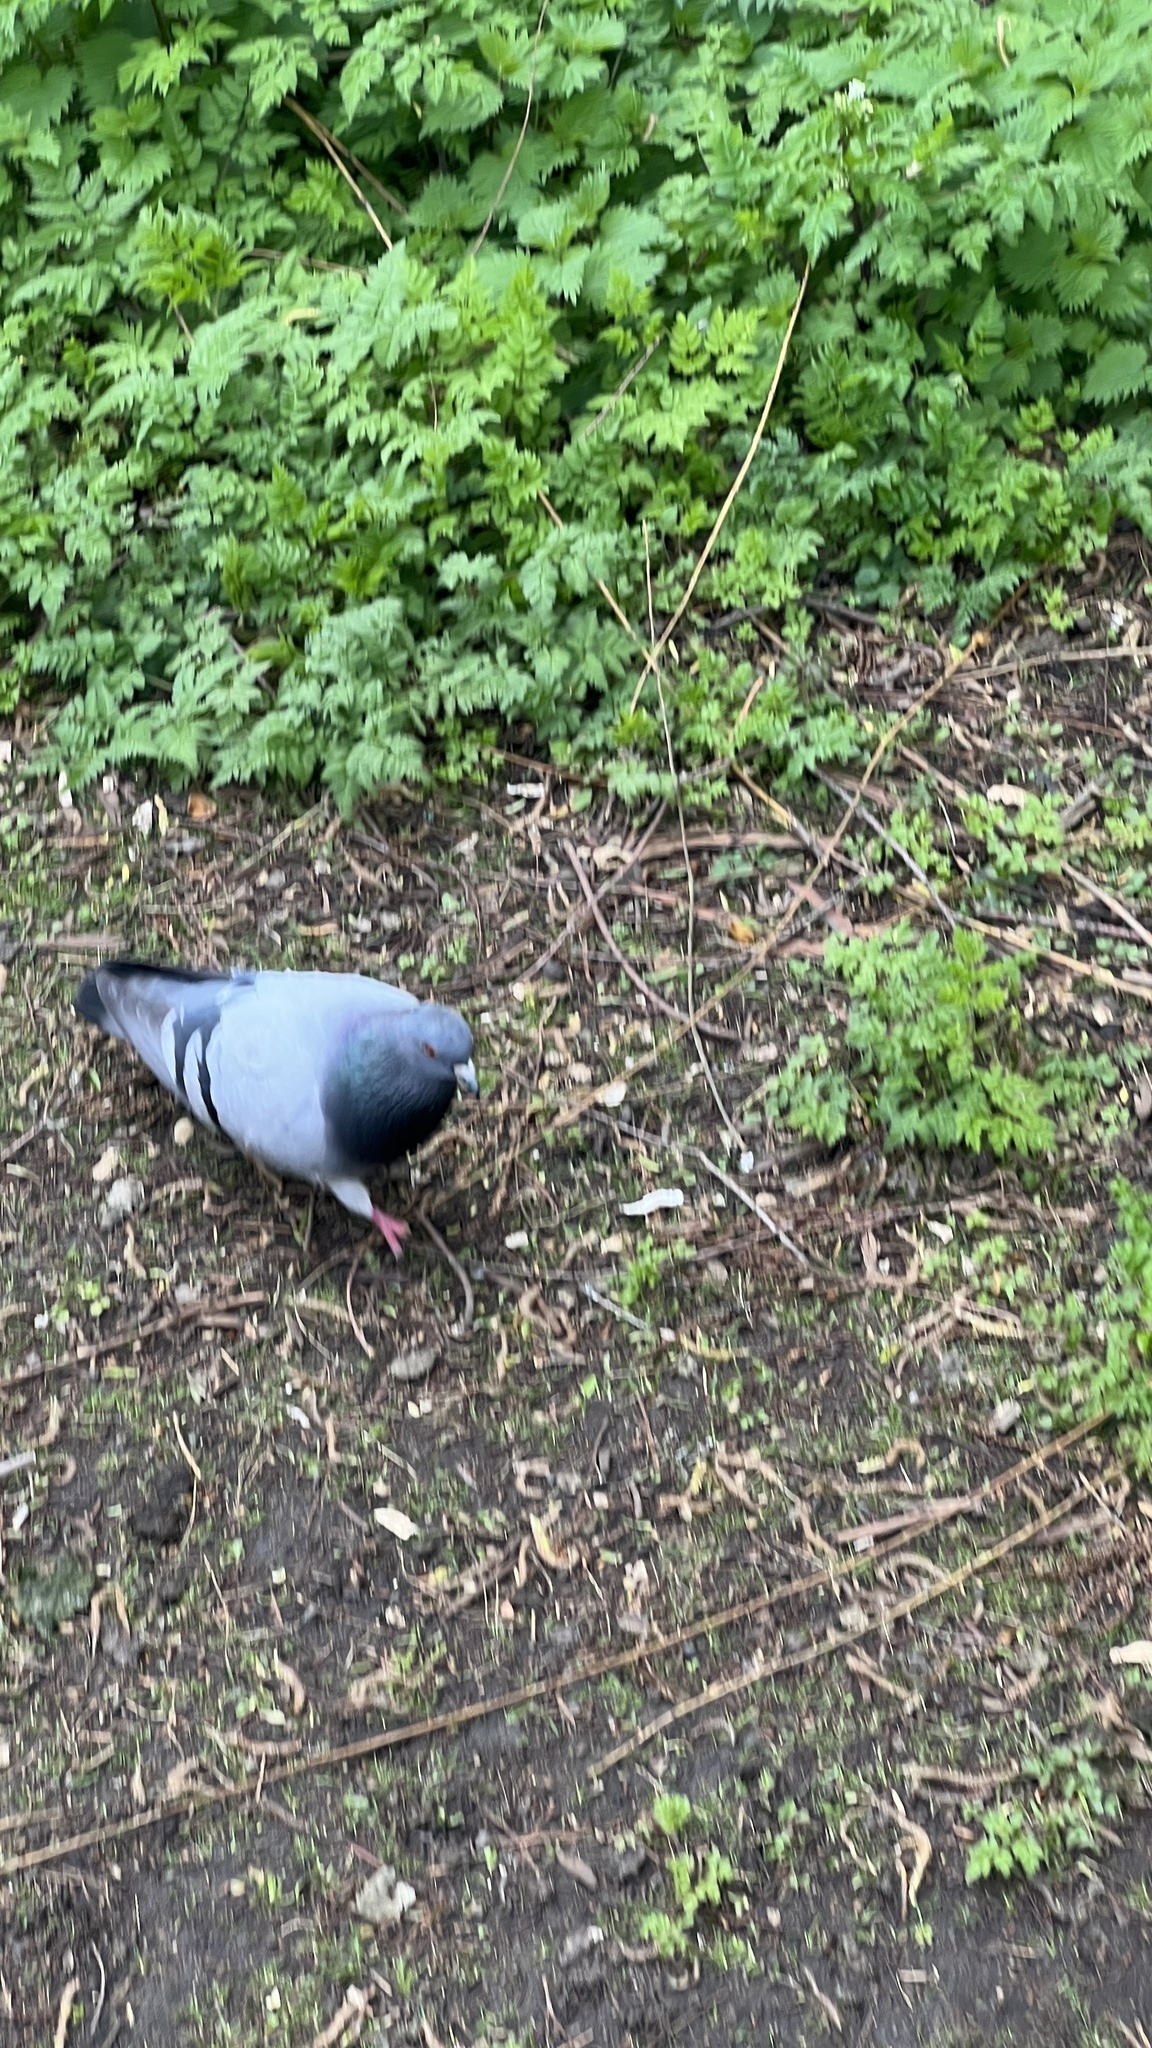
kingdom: Animalia
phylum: Chordata
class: Aves
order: Columbiformes
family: Columbidae
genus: Columba
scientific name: Columba livia
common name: Rock pigeon
